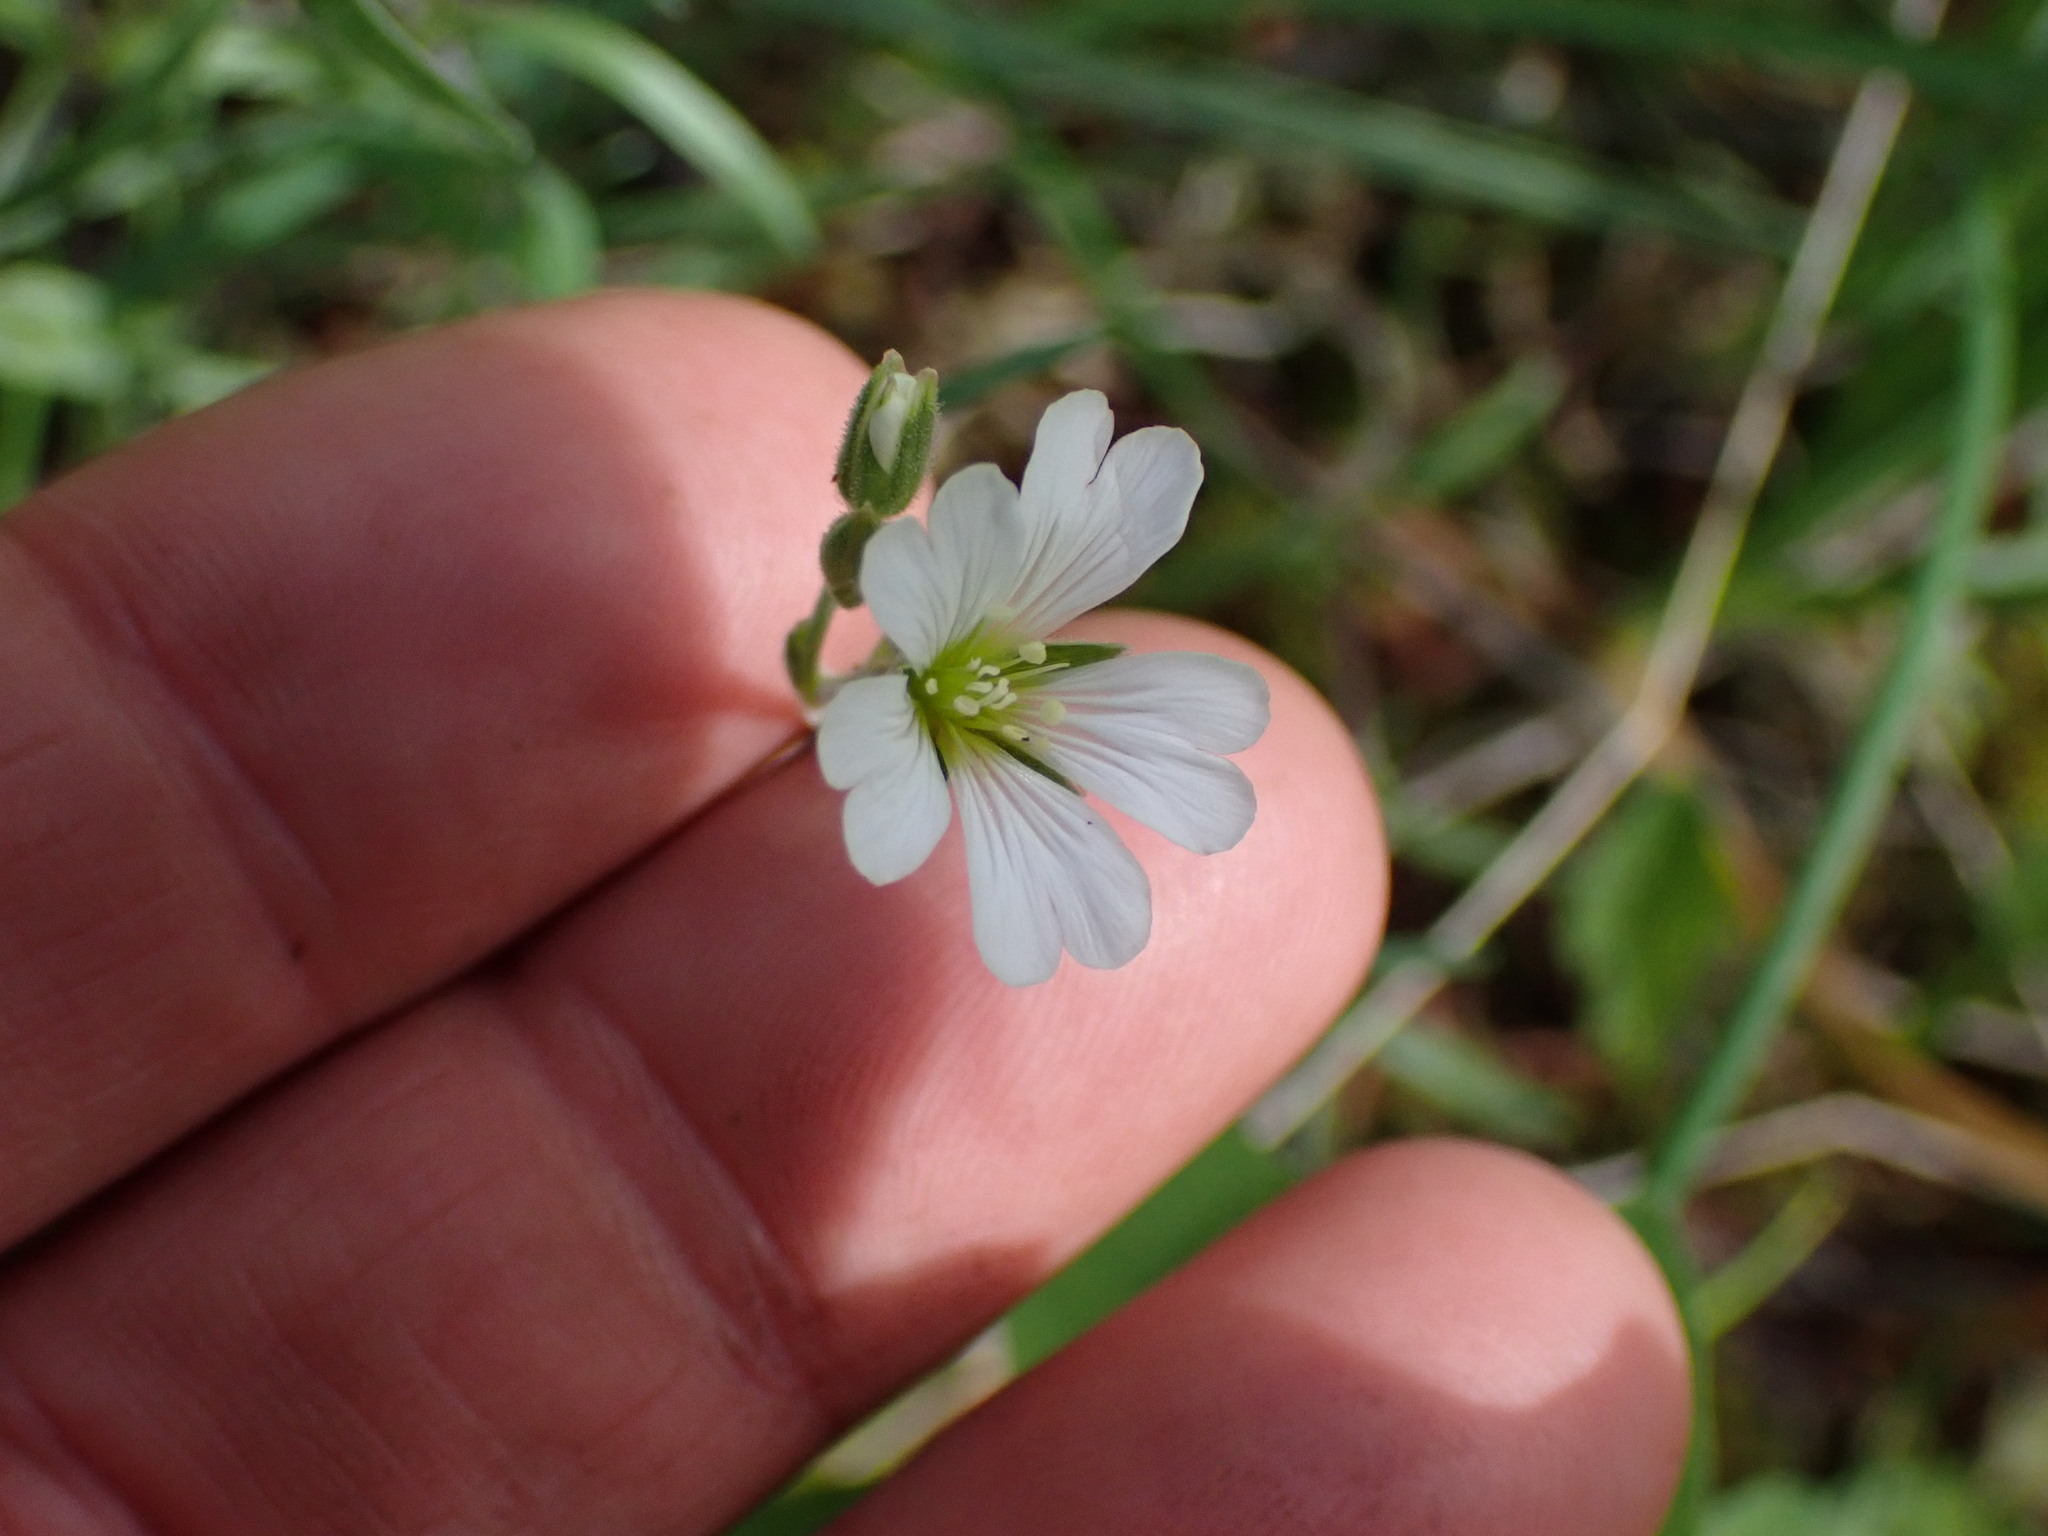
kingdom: Plantae
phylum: Tracheophyta
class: Magnoliopsida
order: Caryophyllales
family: Caryophyllaceae
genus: Cerastium
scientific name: Cerastium arvense
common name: Field mouse-ear
